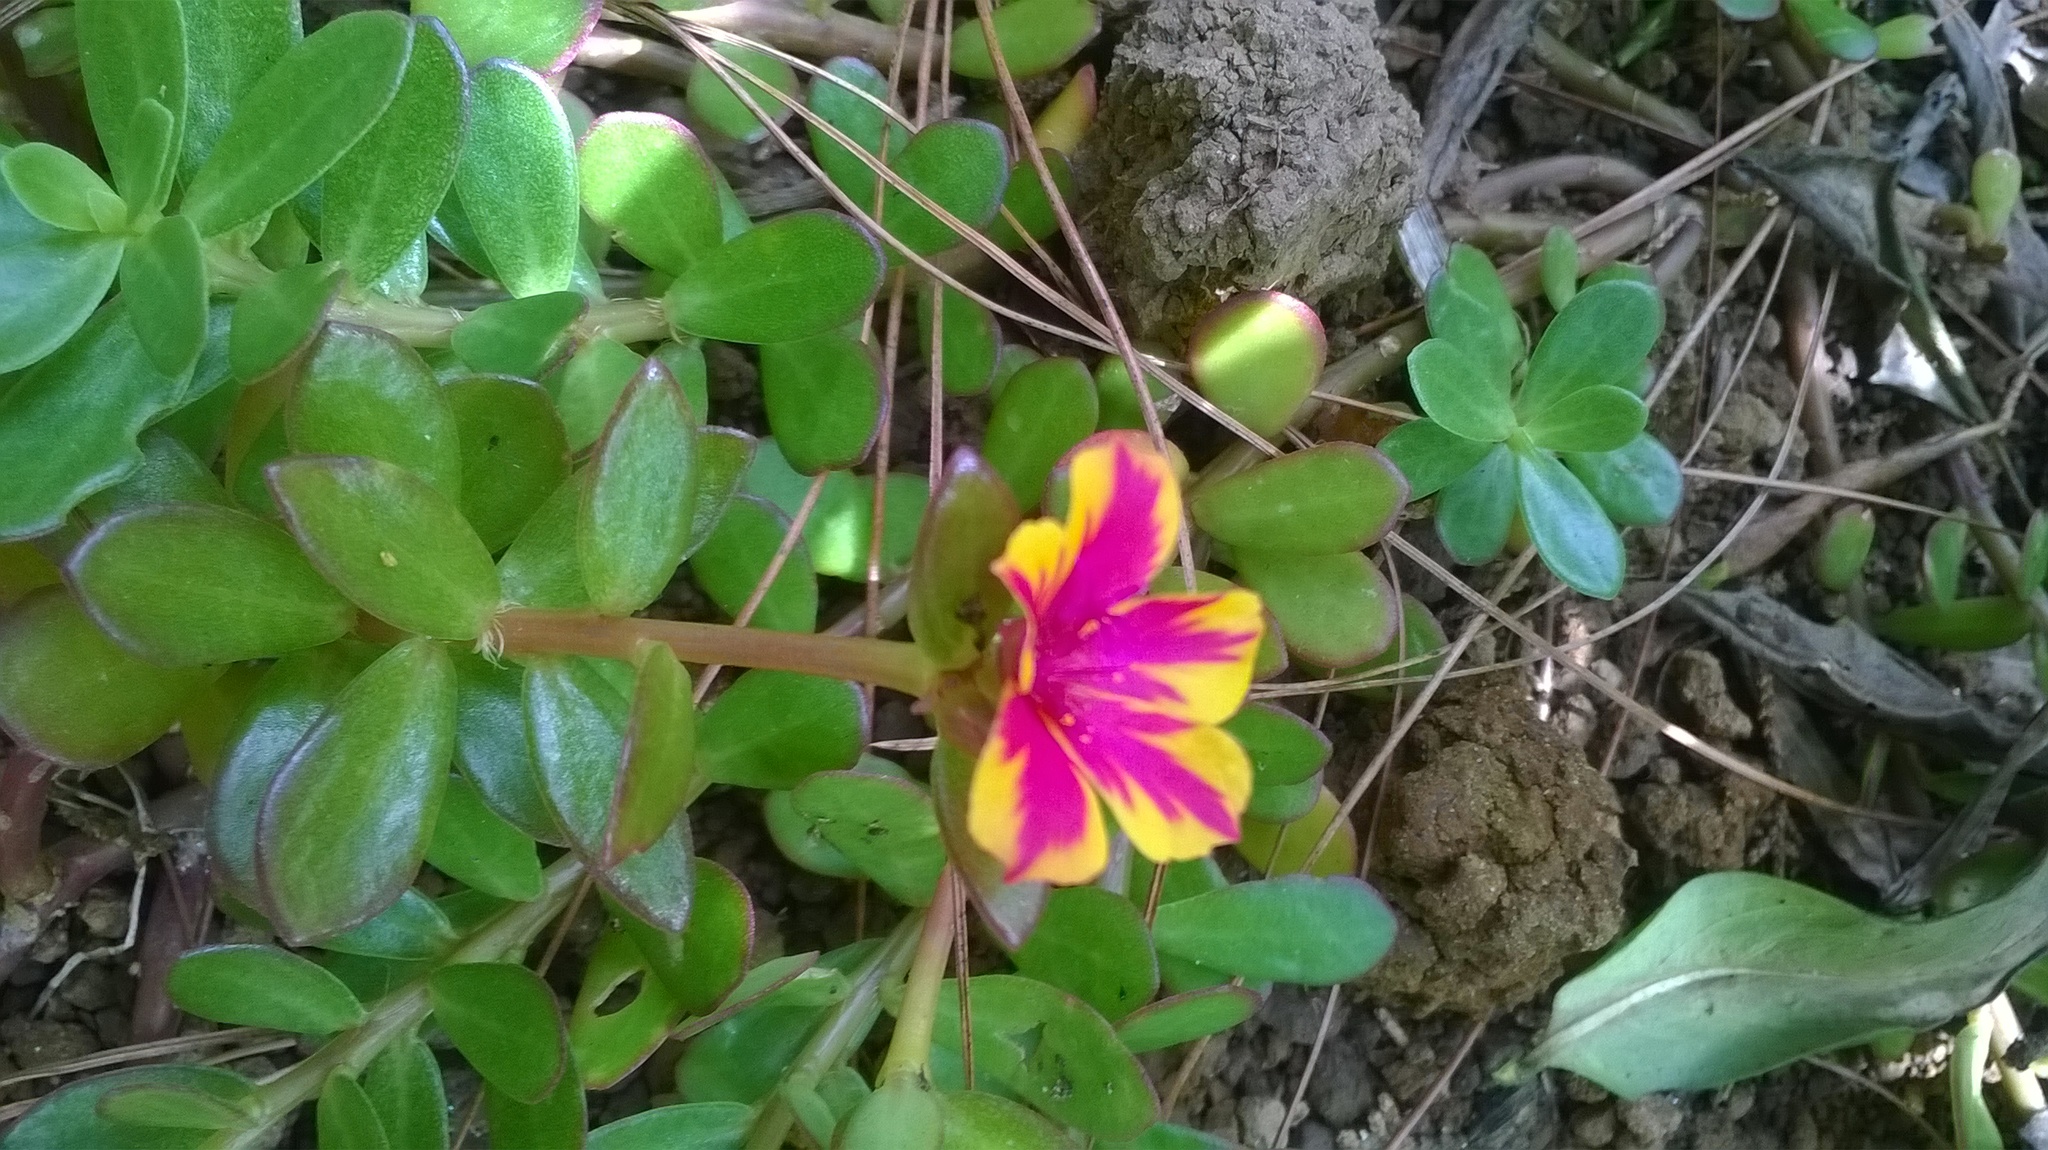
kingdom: Plantae
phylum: Tracheophyta
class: Magnoliopsida
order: Caryophyllales
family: Portulacaceae
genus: Portulaca
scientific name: Portulaca umbraticola
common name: Wingpod purslane
